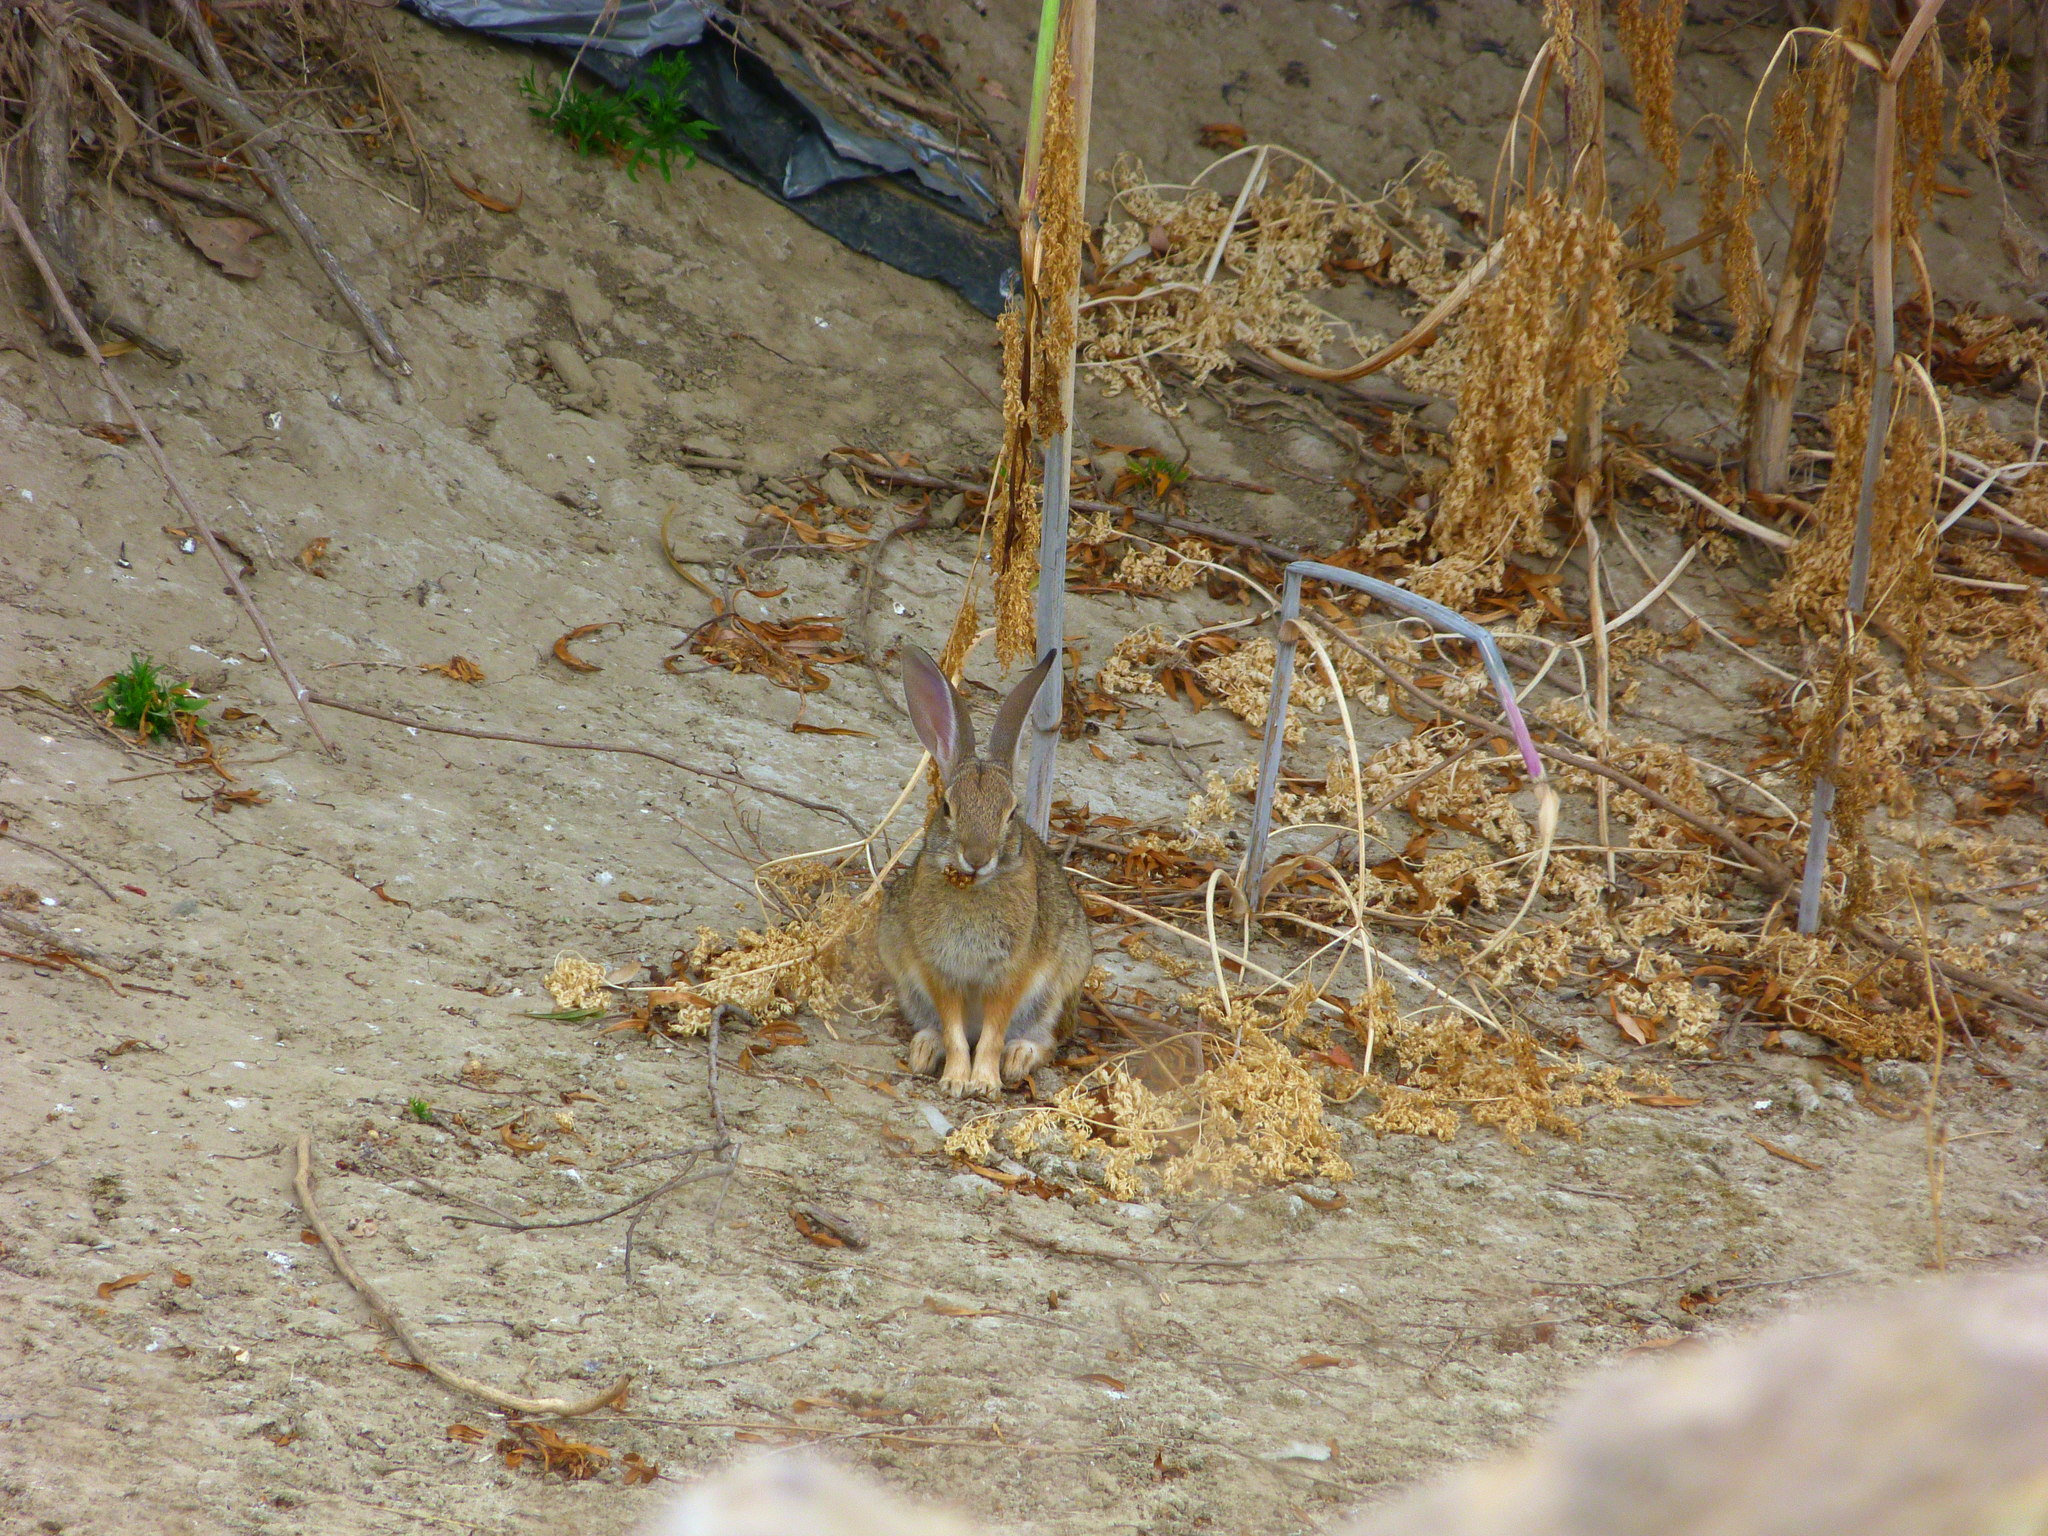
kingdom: Animalia
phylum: Chordata
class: Mammalia
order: Lagomorpha
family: Leporidae
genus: Sylvilagus
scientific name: Sylvilagus audubonii
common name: Desert cottontail
